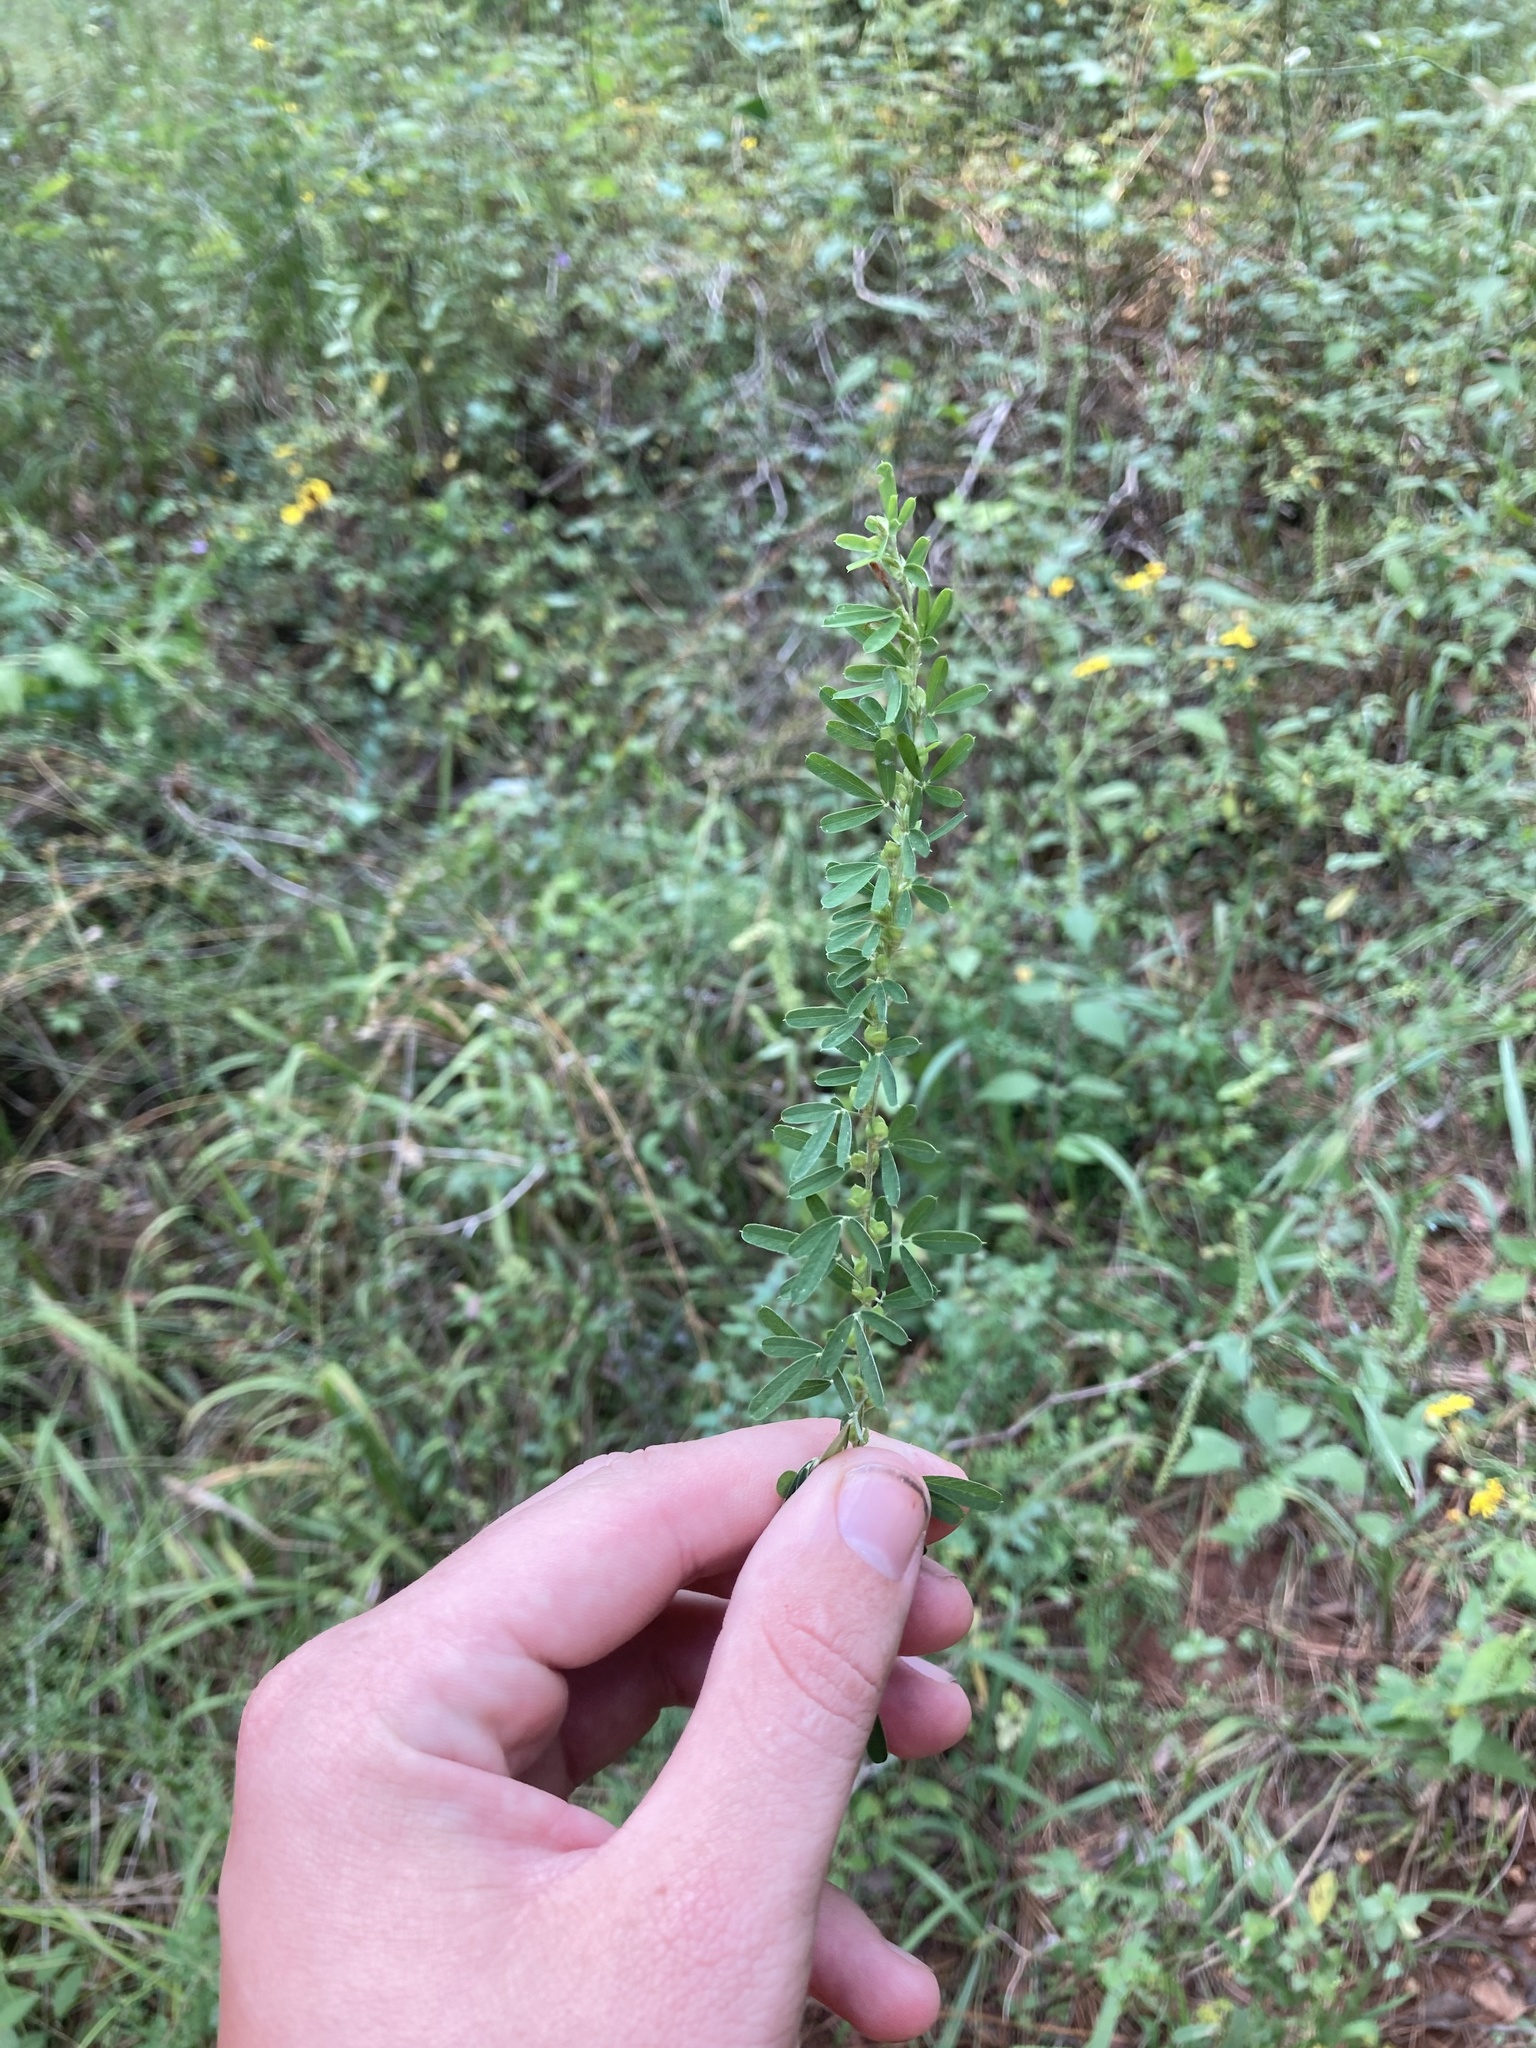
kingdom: Plantae
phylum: Tracheophyta
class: Magnoliopsida
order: Fabales
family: Fabaceae
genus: Lespedeza
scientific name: Lespedeza cuneata
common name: Chinese bush-clover
